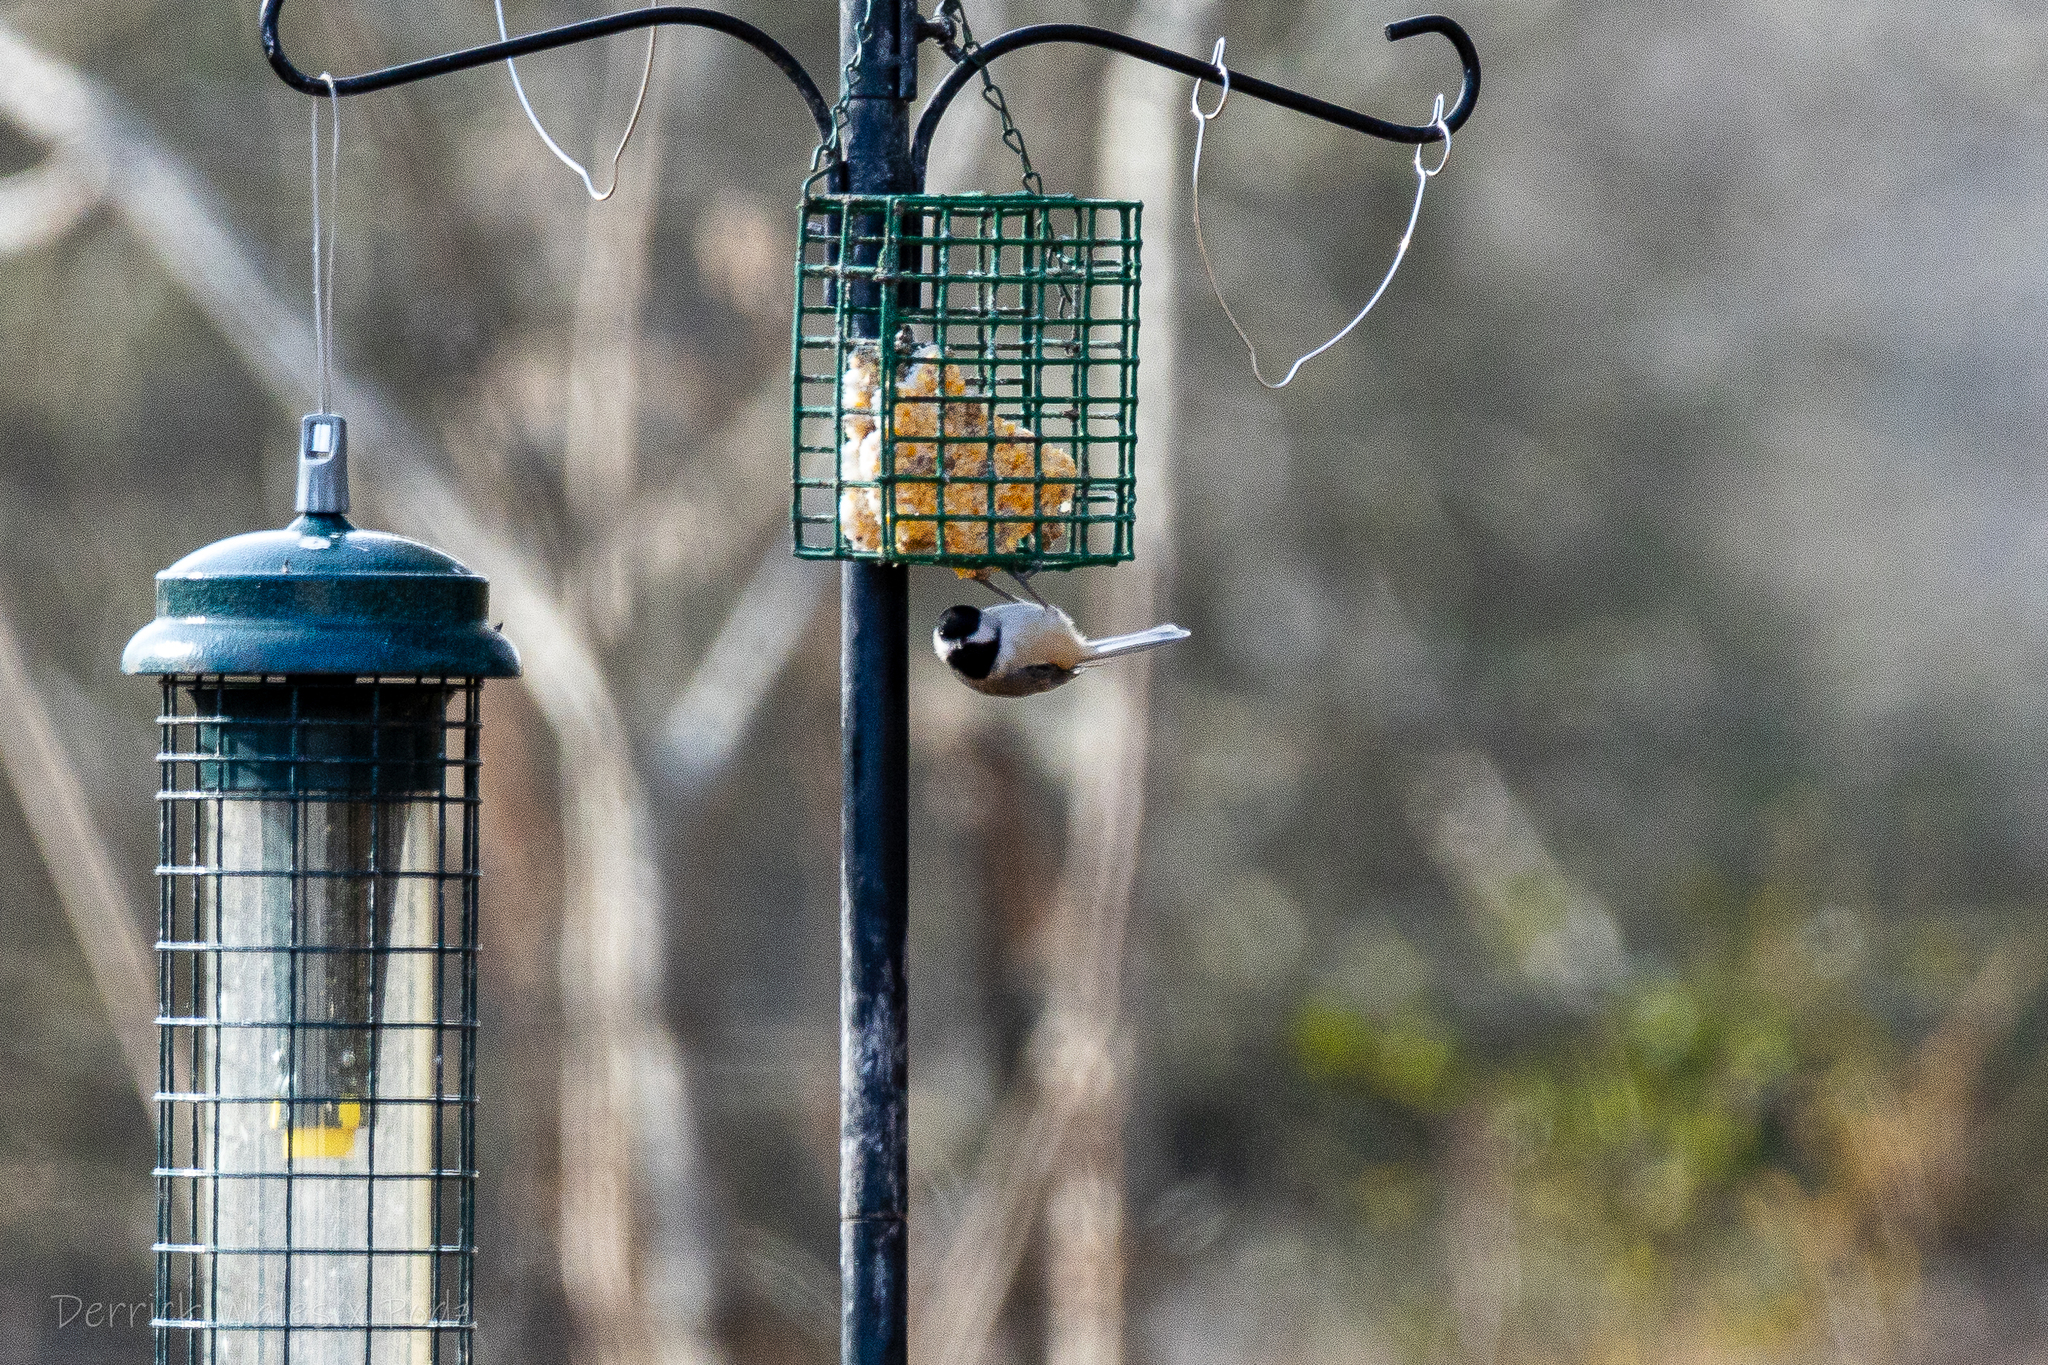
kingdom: Animalia
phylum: Chordata
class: Aves
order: Passeriformes
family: Paridae
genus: Poecile
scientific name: Poecile carolinensis
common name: Carolina chickadee
